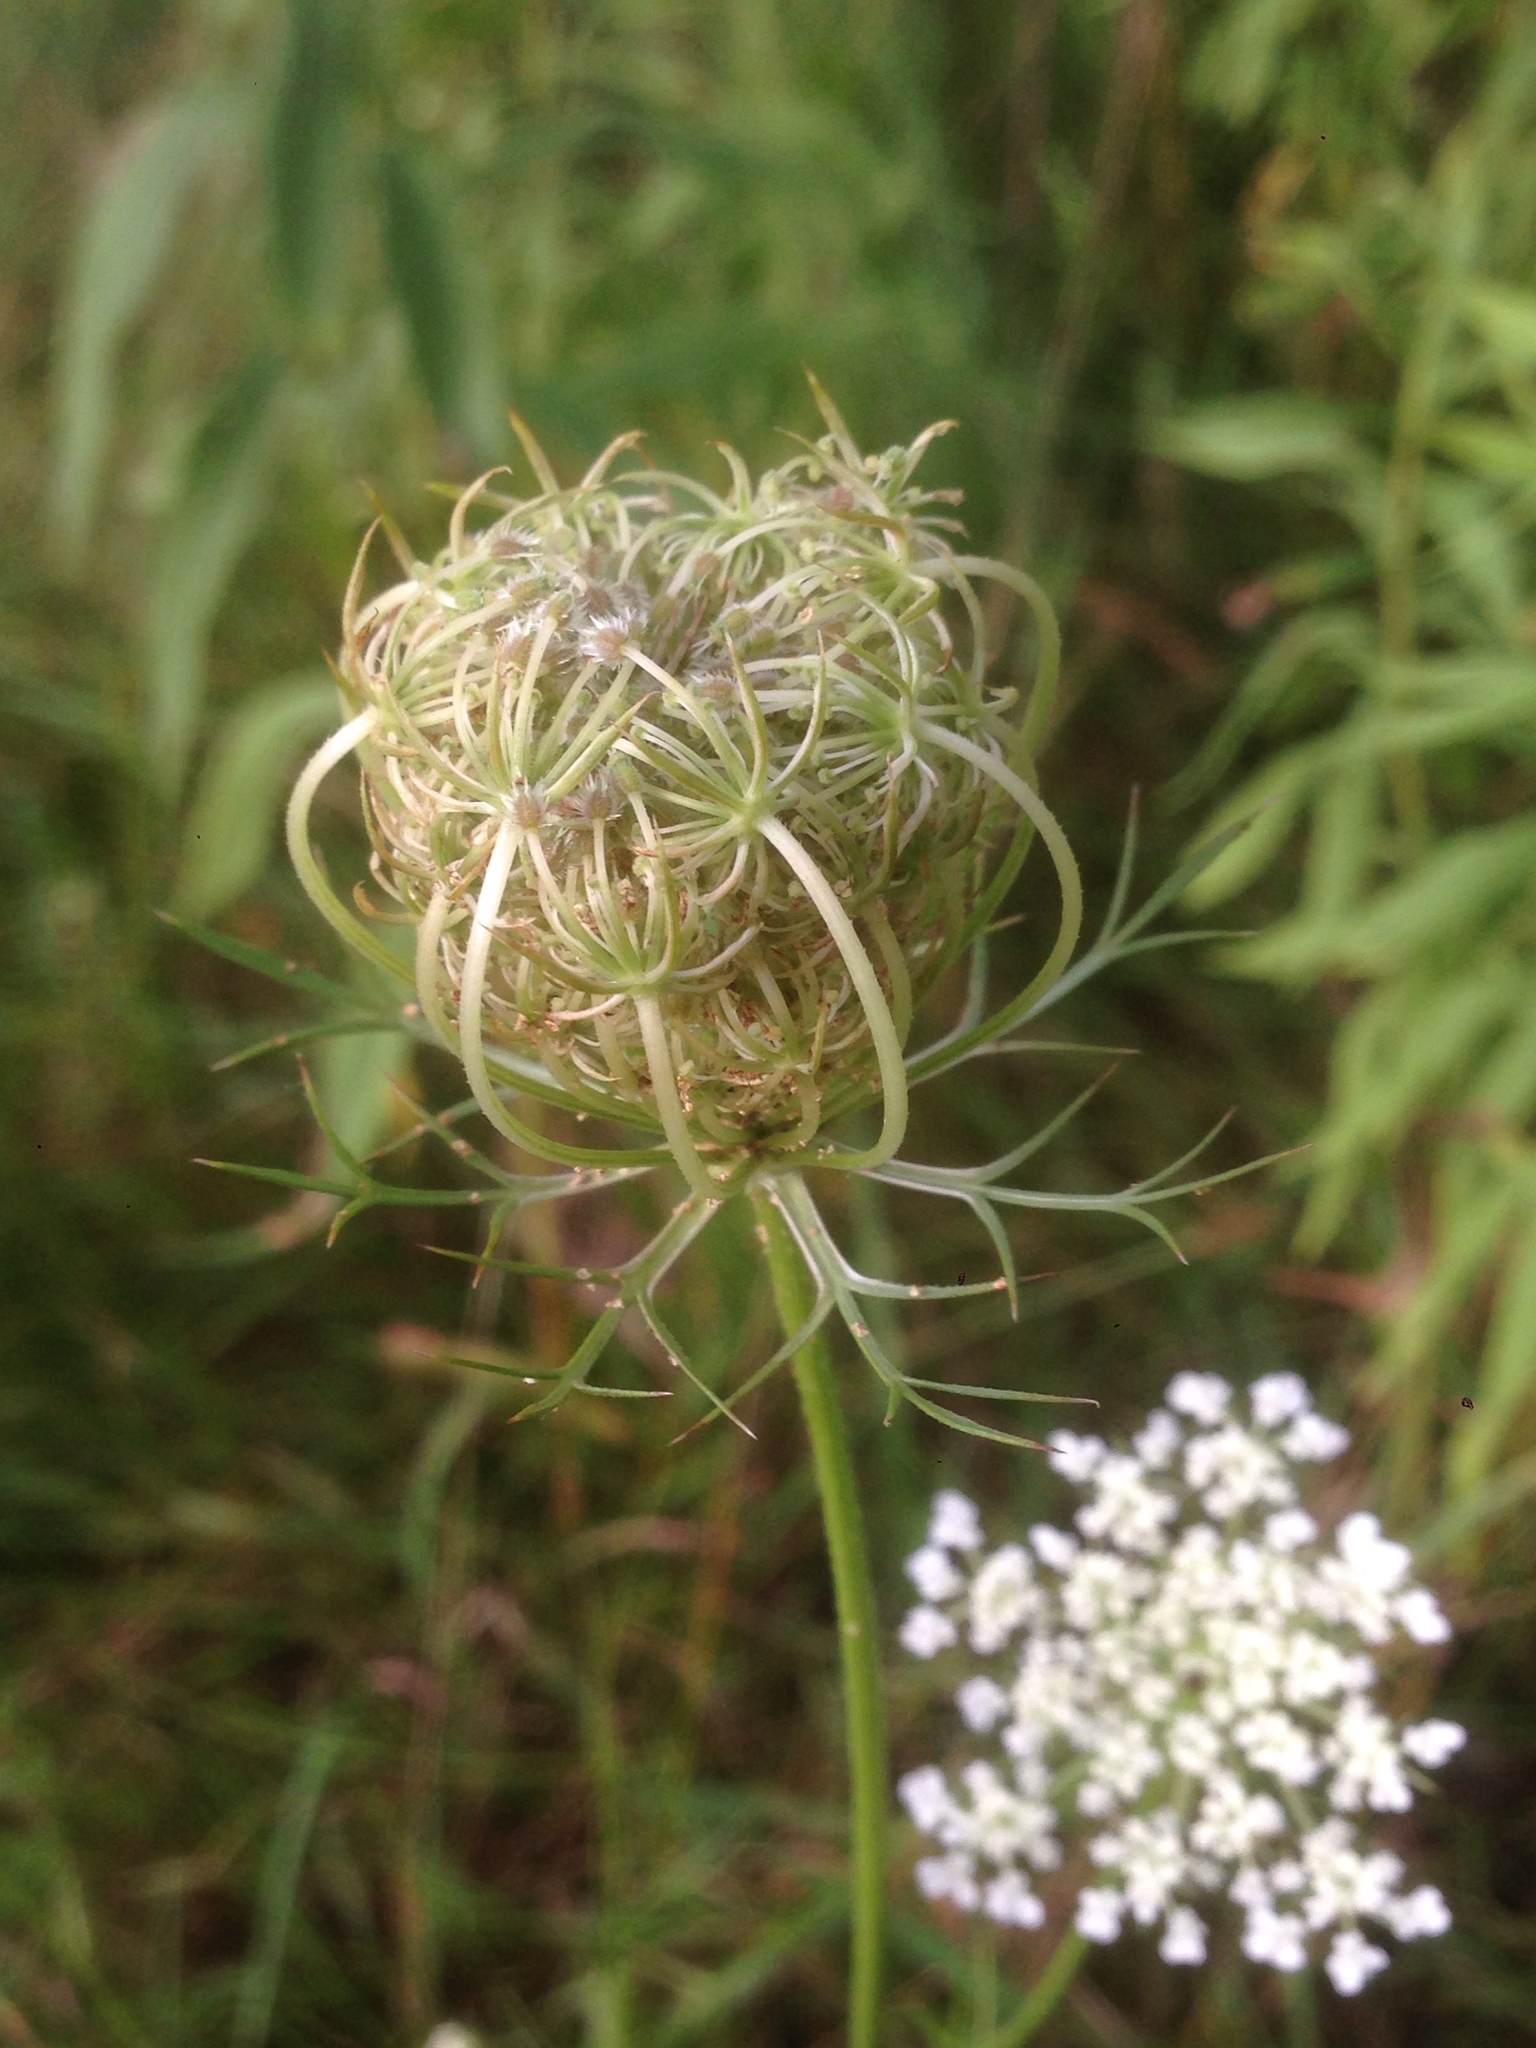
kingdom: Plantae
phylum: Tracheophyta
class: Magnoliopsida
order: Apiales
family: Apiaceae
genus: Daucus
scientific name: Daucus carota
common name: Wild carrot
